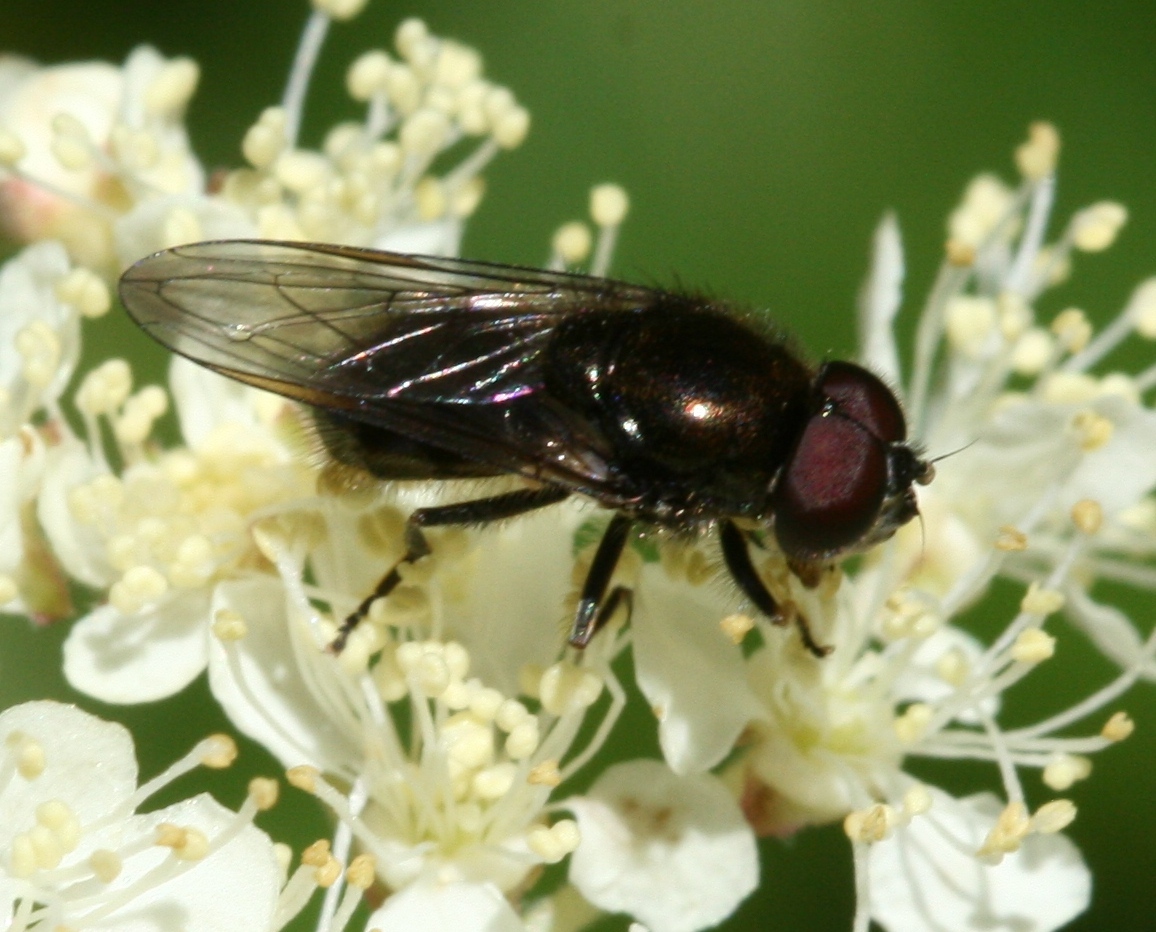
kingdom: Animalia
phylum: Arthropoda
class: Insecta
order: Diptera
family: Syrphidae
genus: Cheilosia
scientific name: Cheilosia
